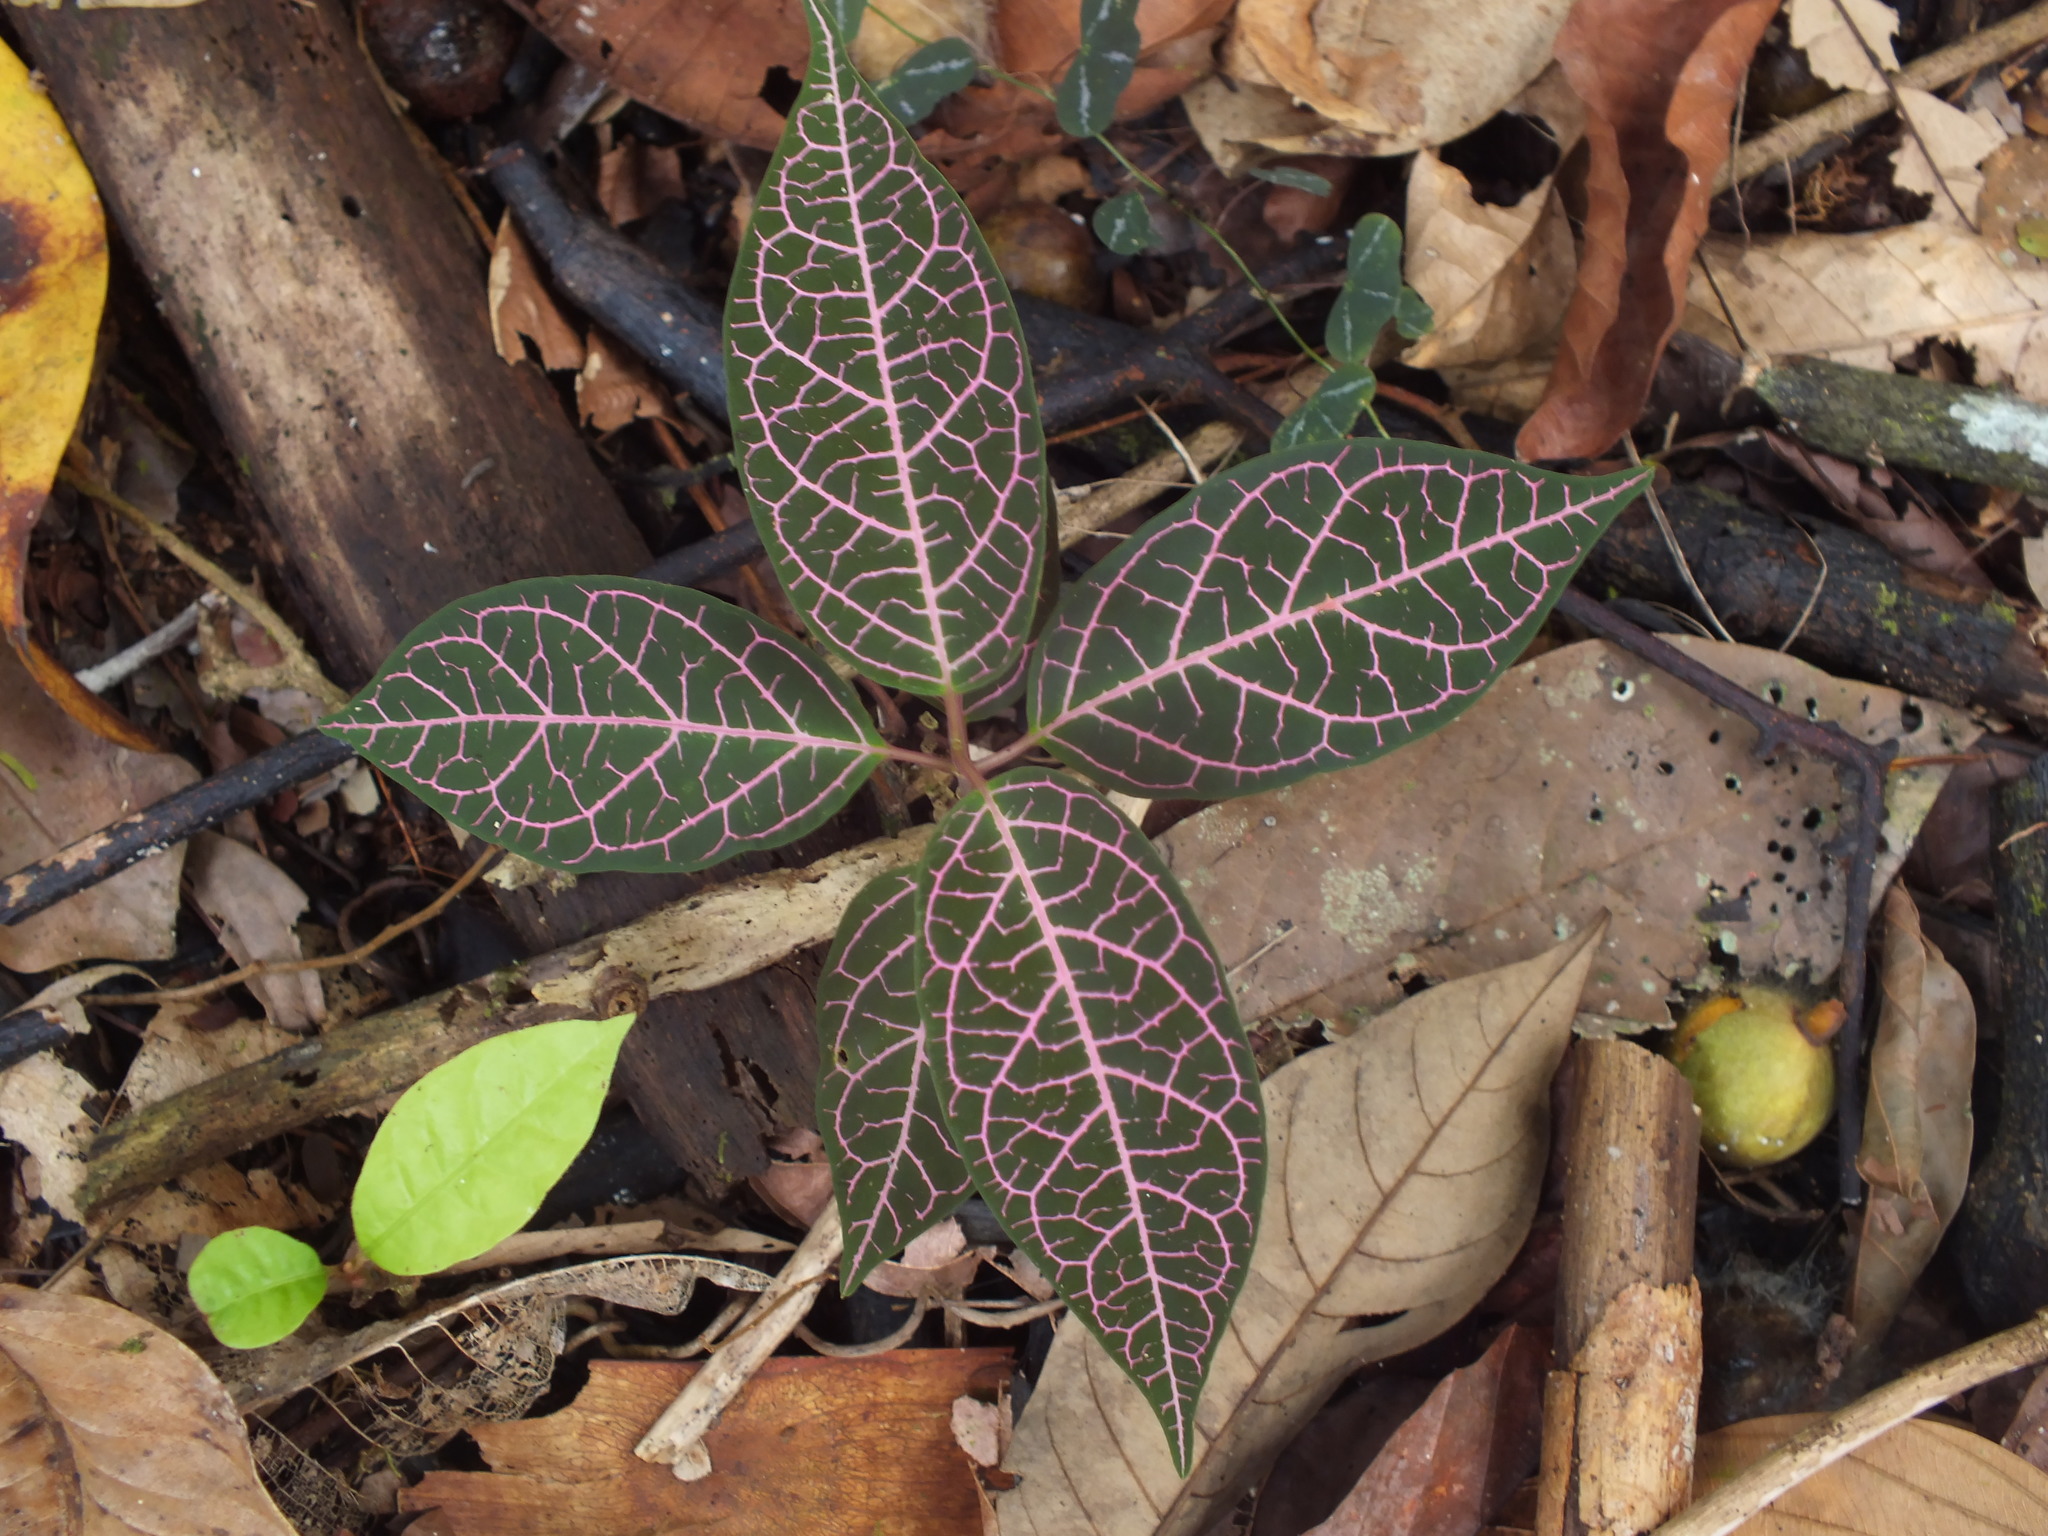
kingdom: Plantae
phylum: Tracheophyta
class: Magnoliopsida
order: Gentianales
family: Apocynaceae
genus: Prestonia
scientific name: Prestonia quinquangularis
